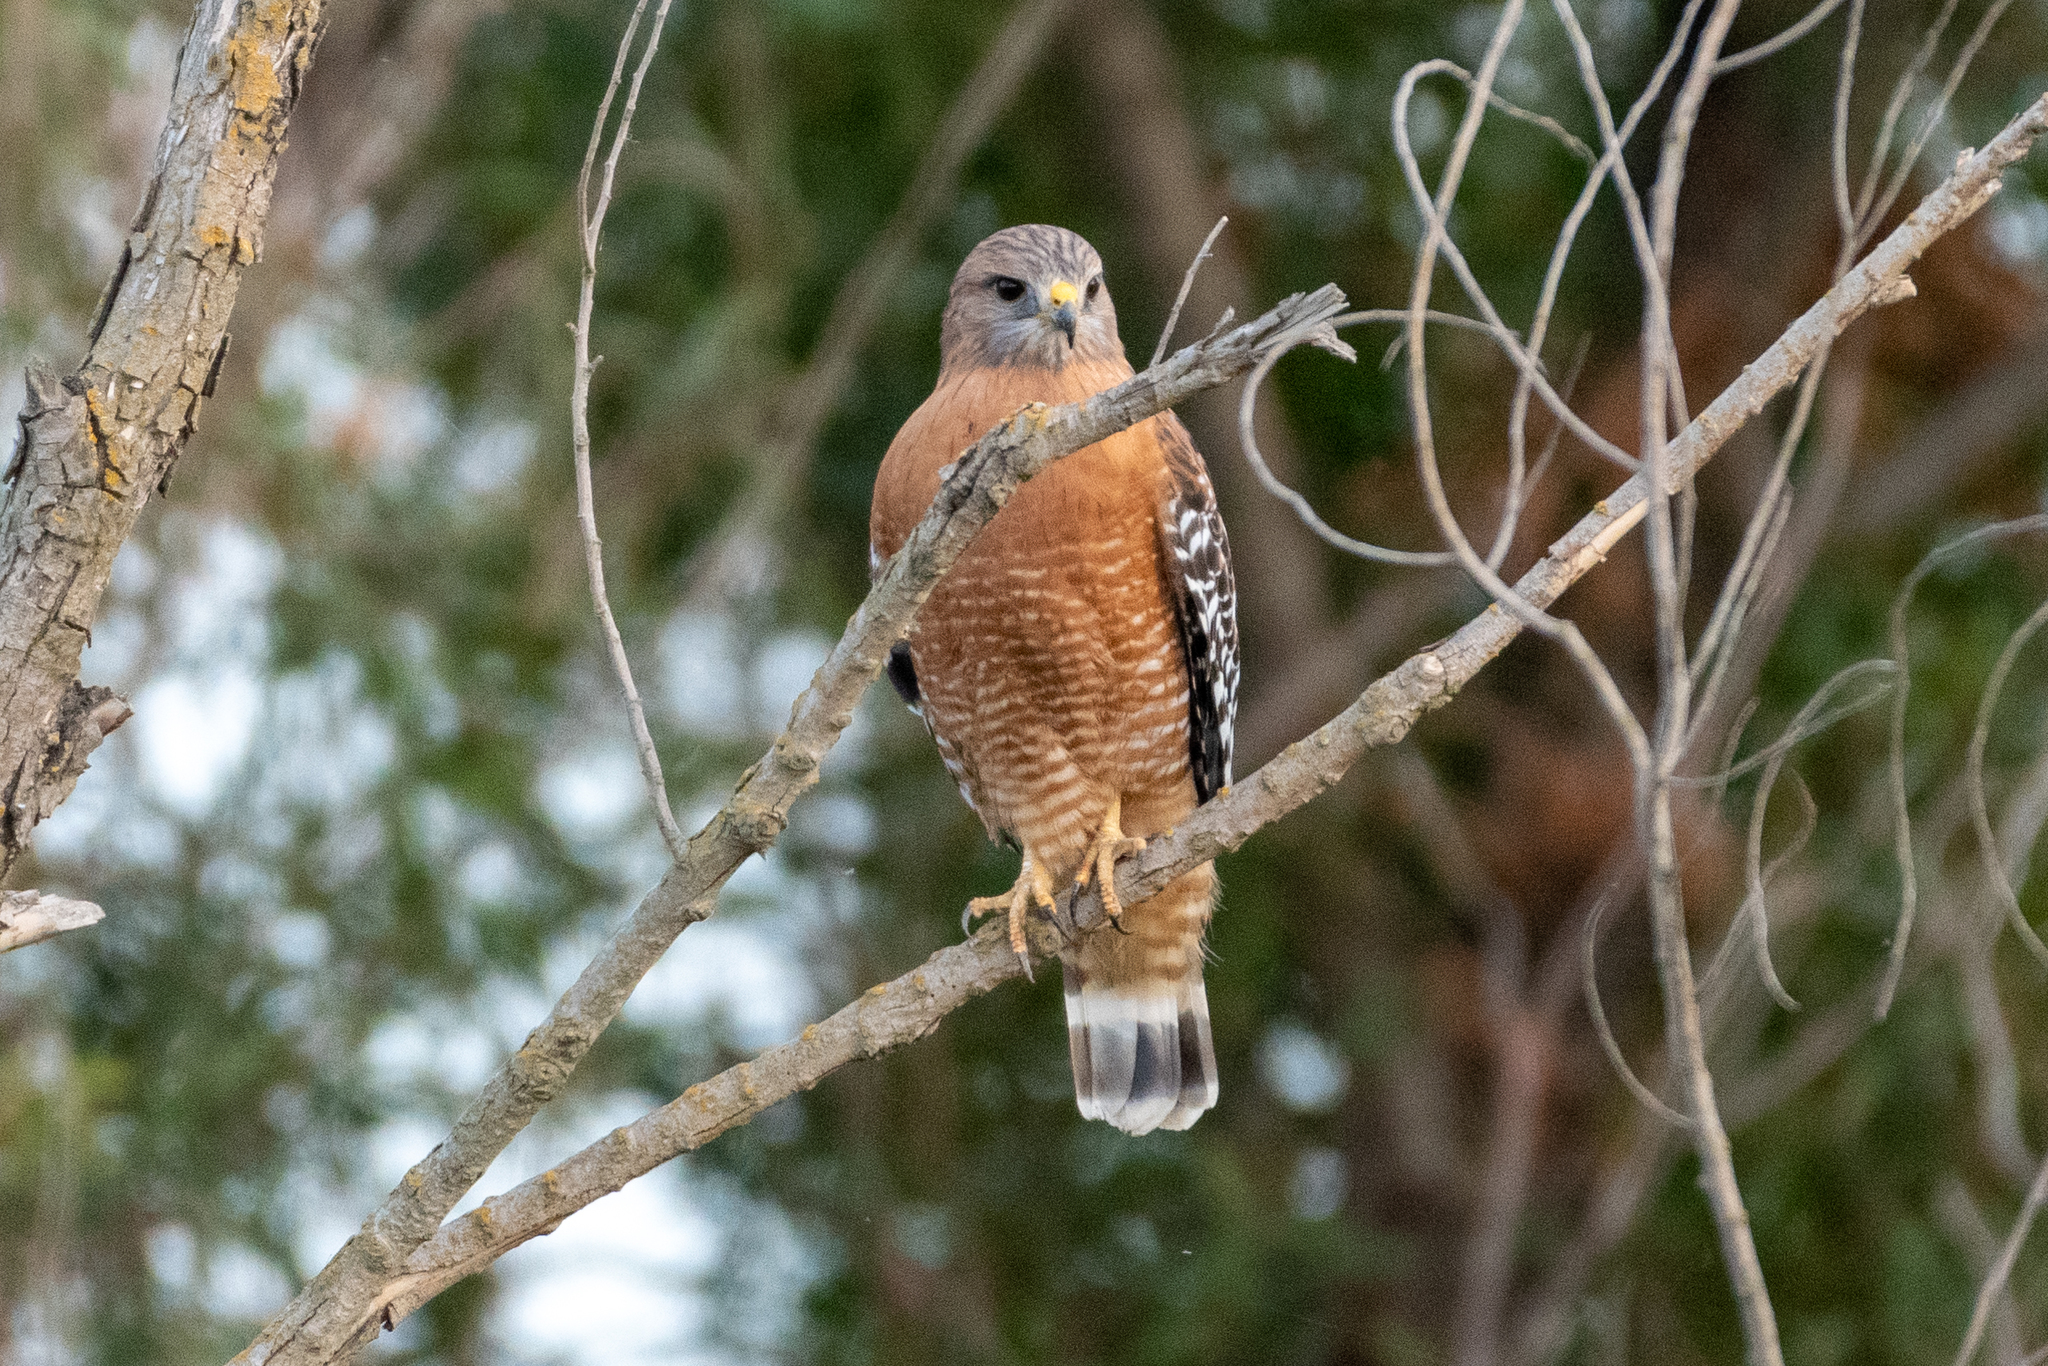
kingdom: Animalia
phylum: Chordata
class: Aves
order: Accipitriformes
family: Accipitridae
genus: Buteo
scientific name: Buteo lineatus
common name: Red-shouldered hawk
